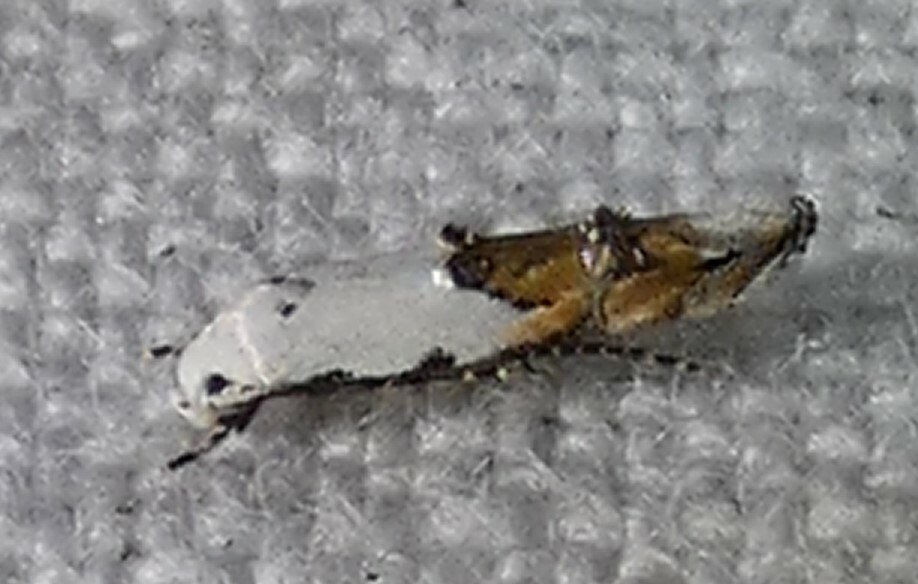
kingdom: Animalia
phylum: Arthropoda
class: Insecta
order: Lepidoptera
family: Momphidae
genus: Mompha
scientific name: Mompha bottimeri
